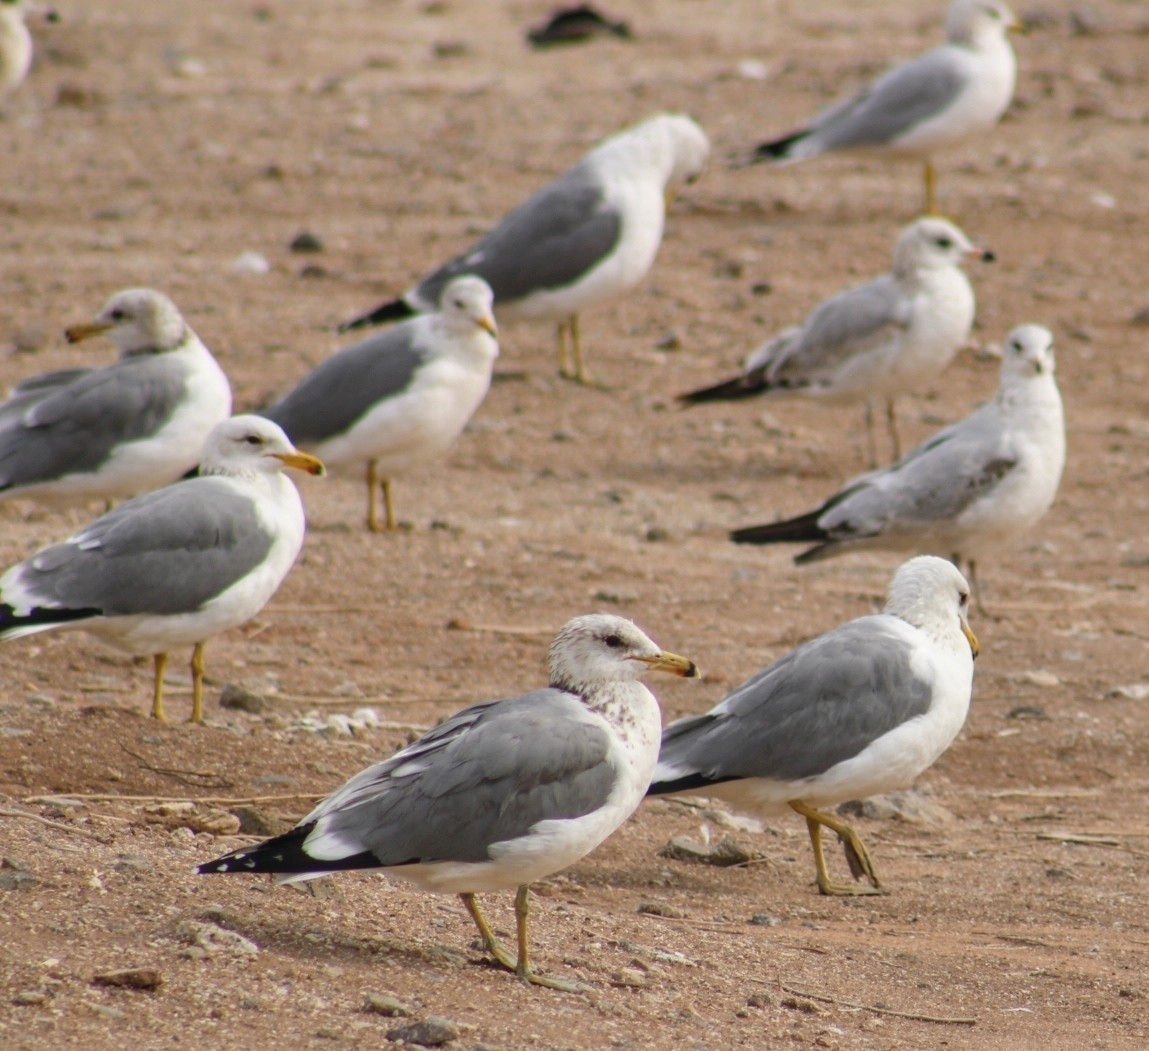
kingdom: Animalia
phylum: Chordata
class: Aves
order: Charadriiformes
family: Laridae
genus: Larus
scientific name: Larus californicus
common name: California gull
